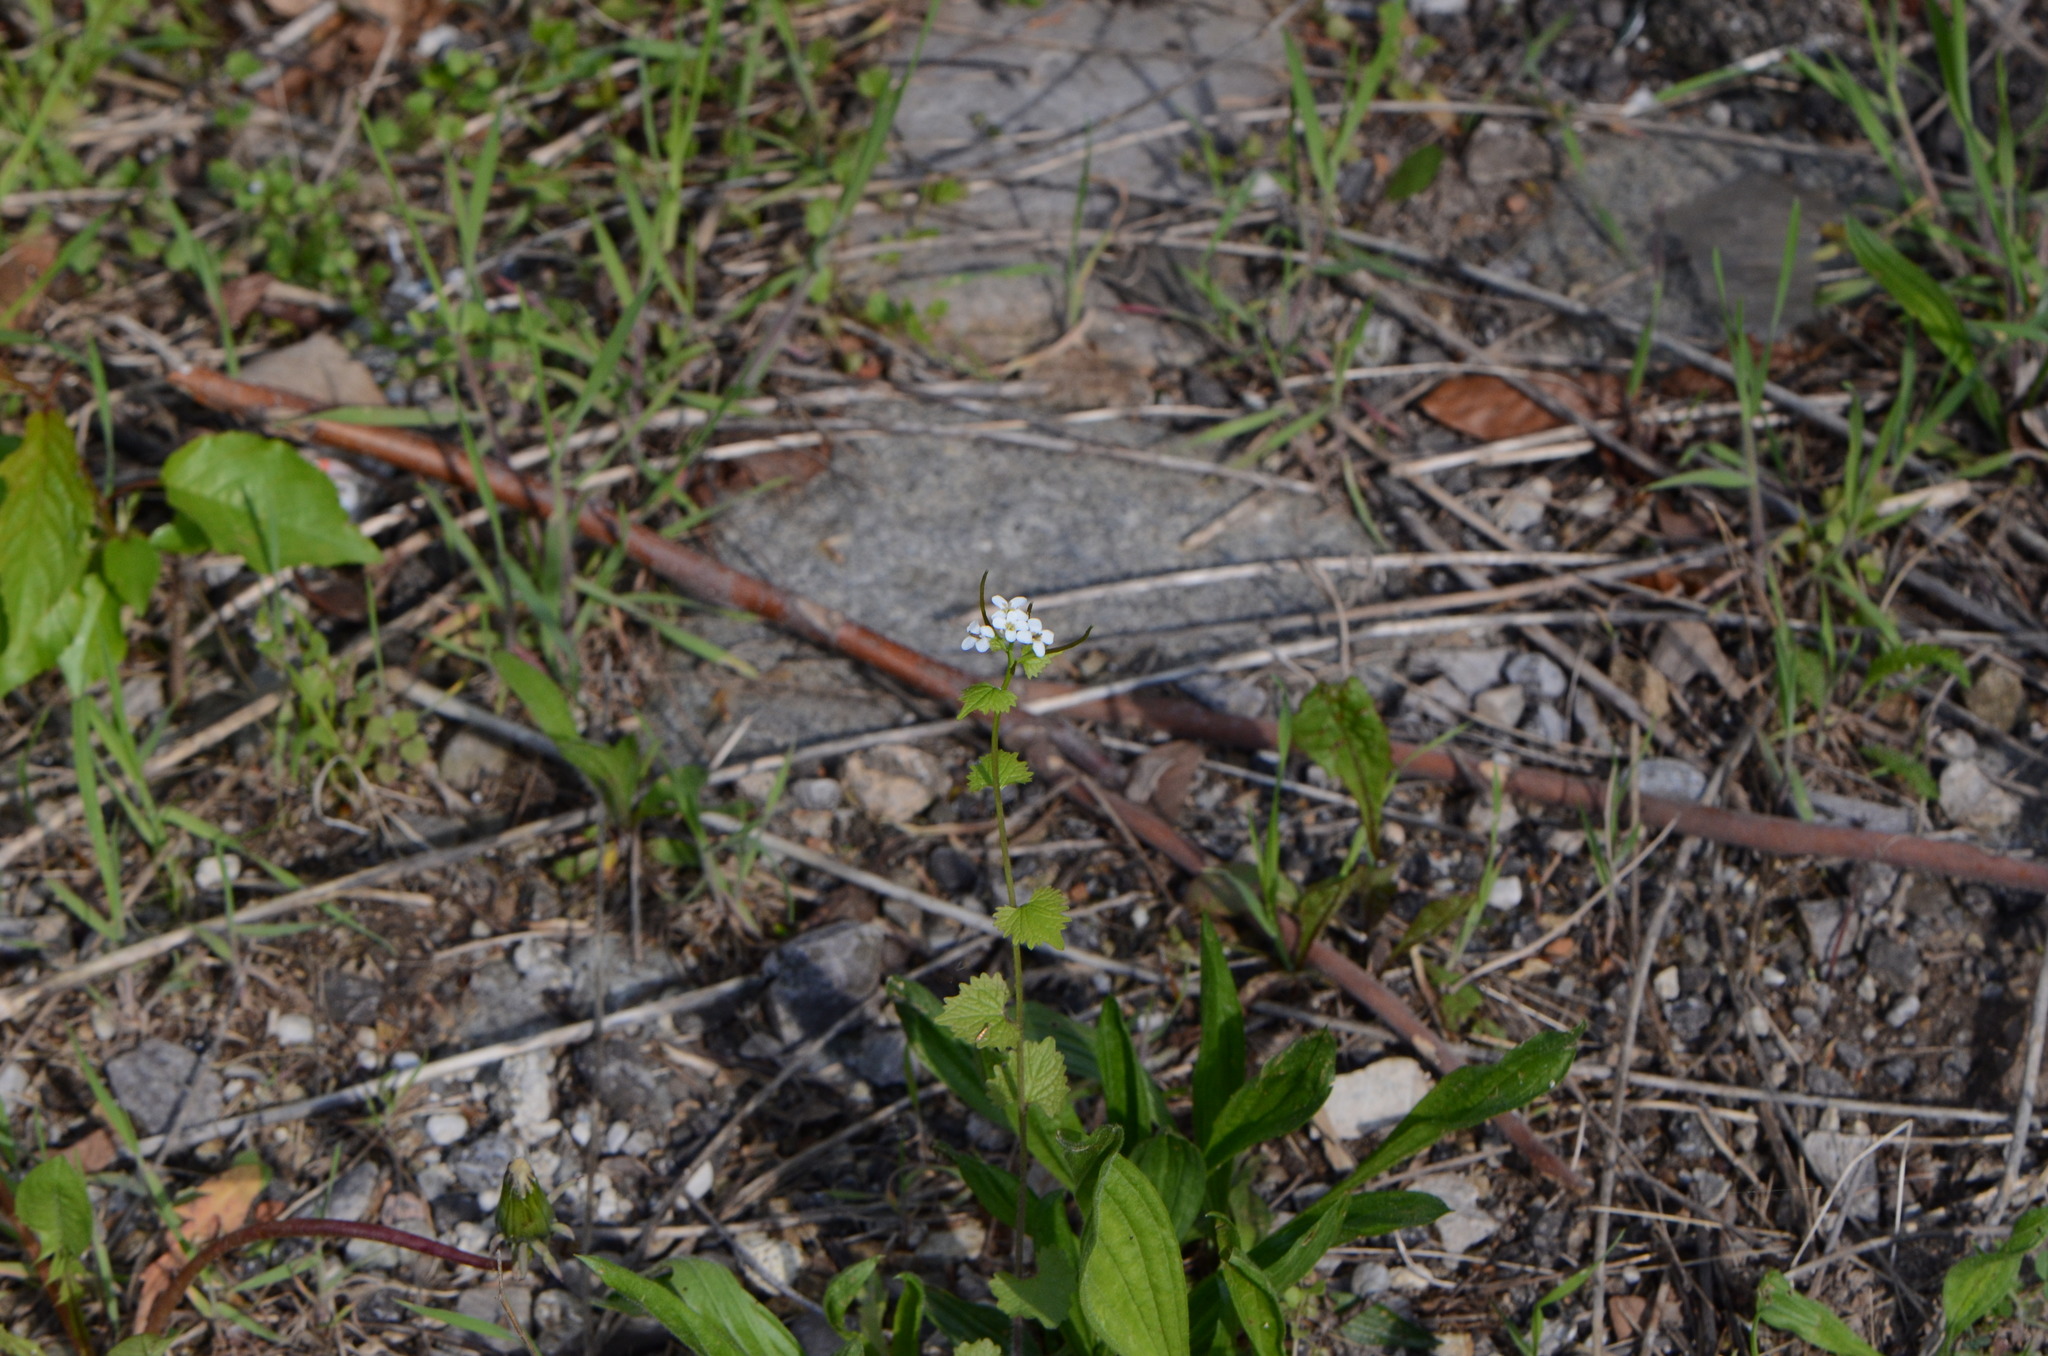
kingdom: Plantae
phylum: Tracheophyta
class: Magnoliopsida
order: Brassicales
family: Brassicaceae
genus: Alliaria
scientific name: Alliaria petiolata
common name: Garlic mustard
